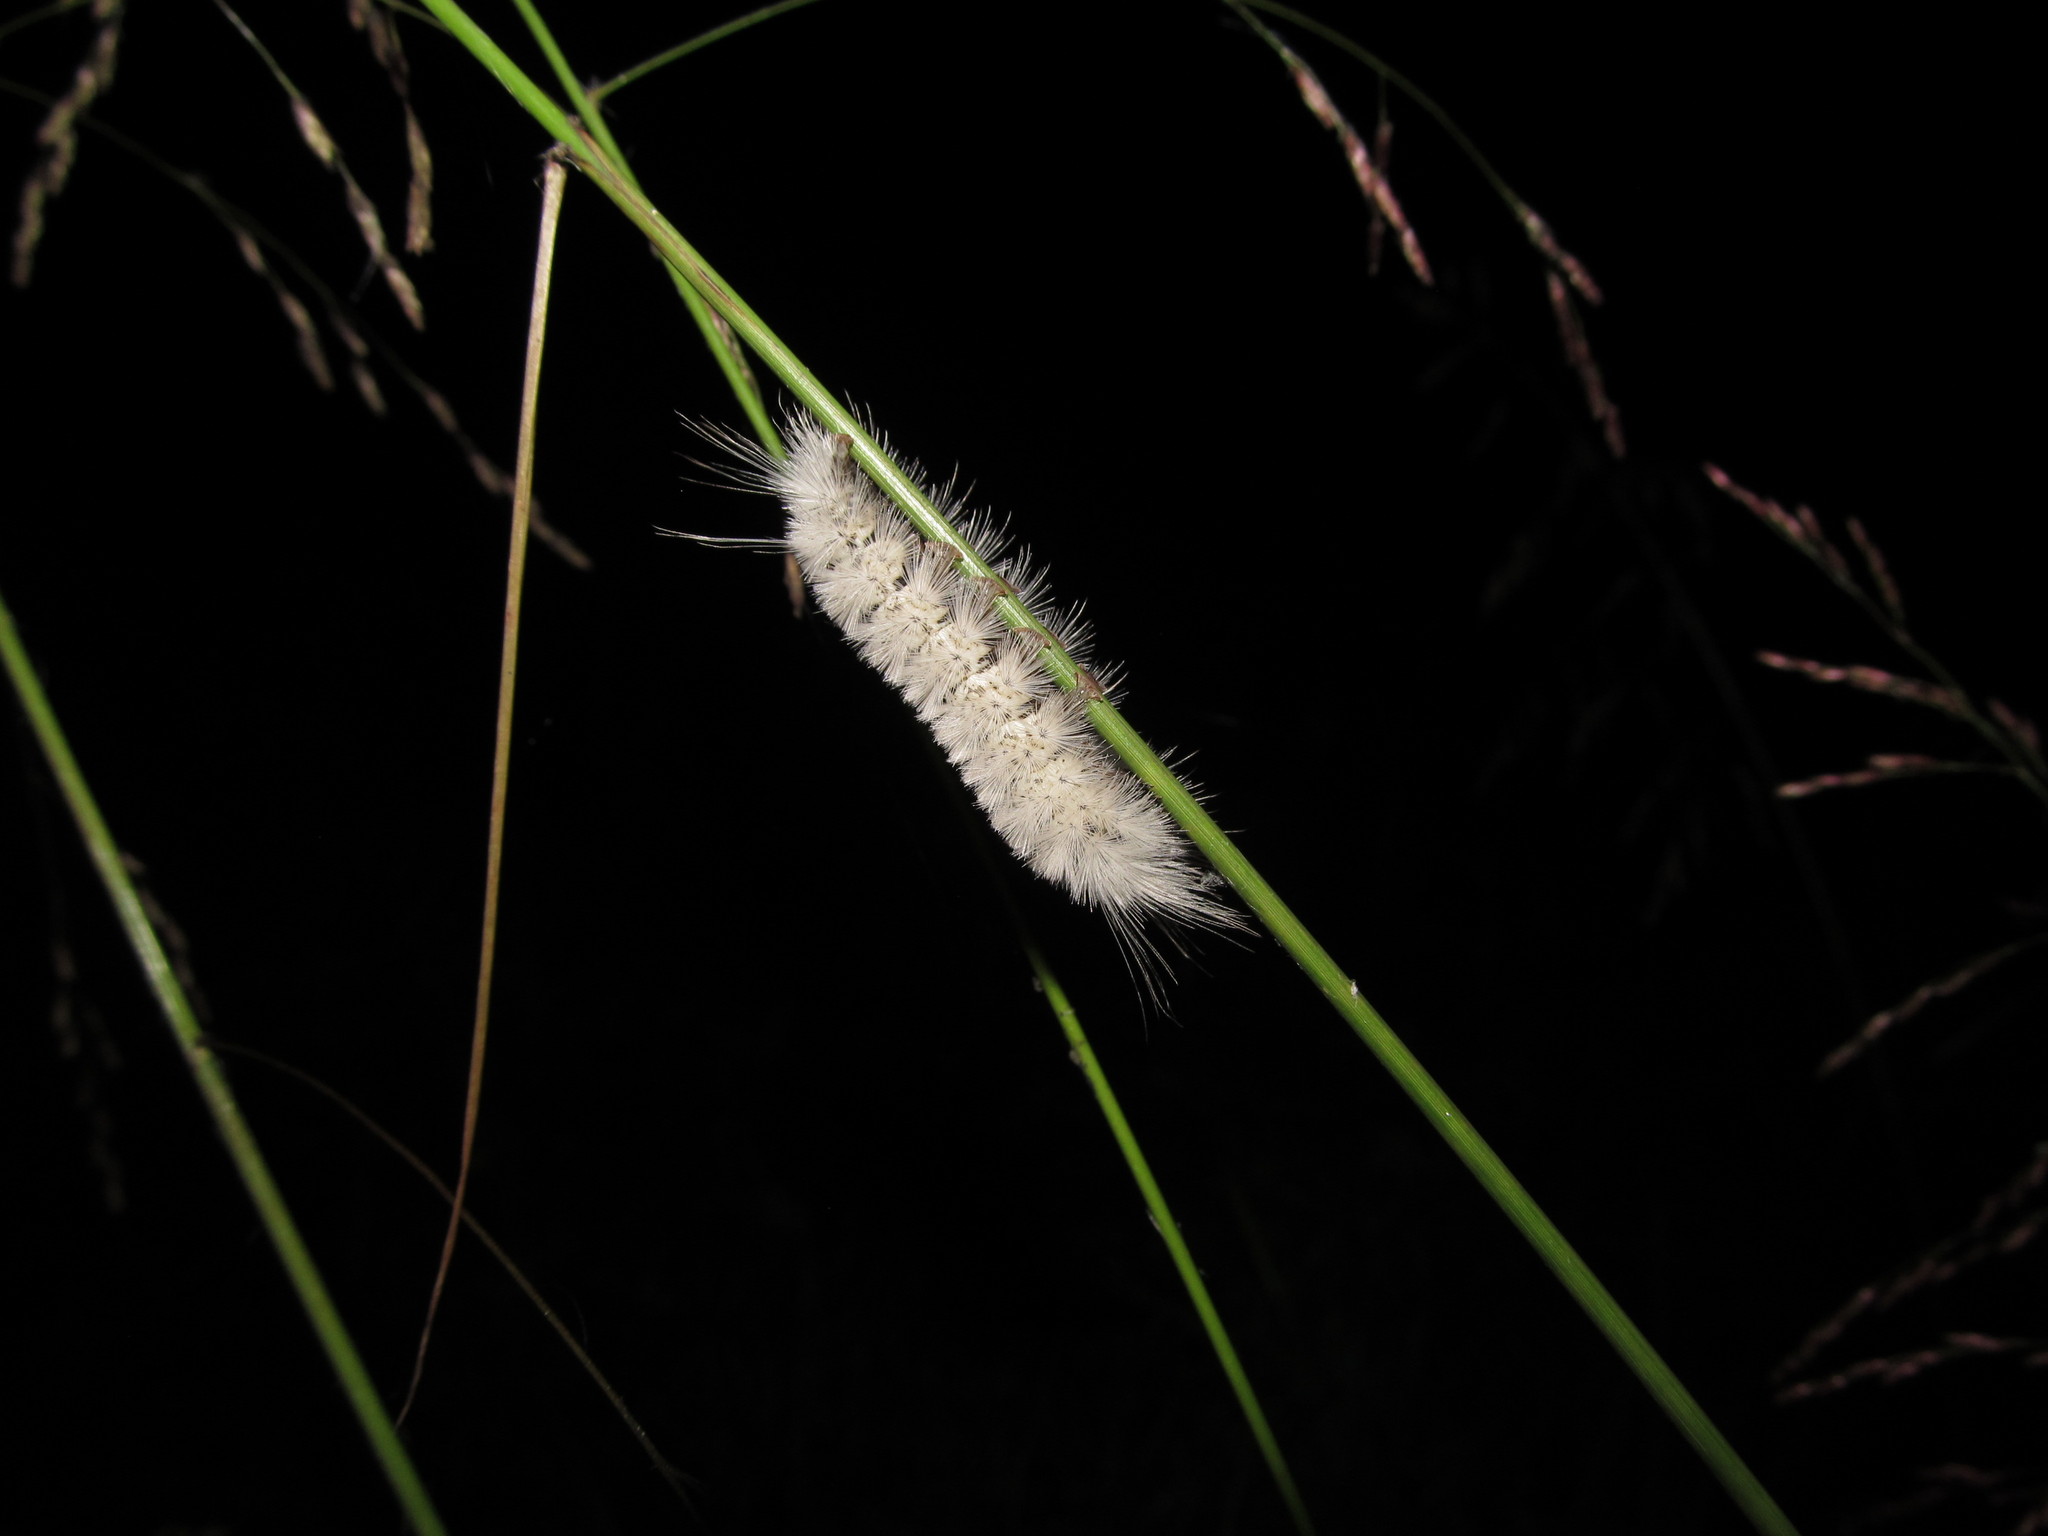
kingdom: Animalia
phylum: Arthropoda
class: Insecta
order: Lepidoptera
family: Erebidae
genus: Lophocampa
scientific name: Lophocampa caryae
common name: Hickory tussock moth
